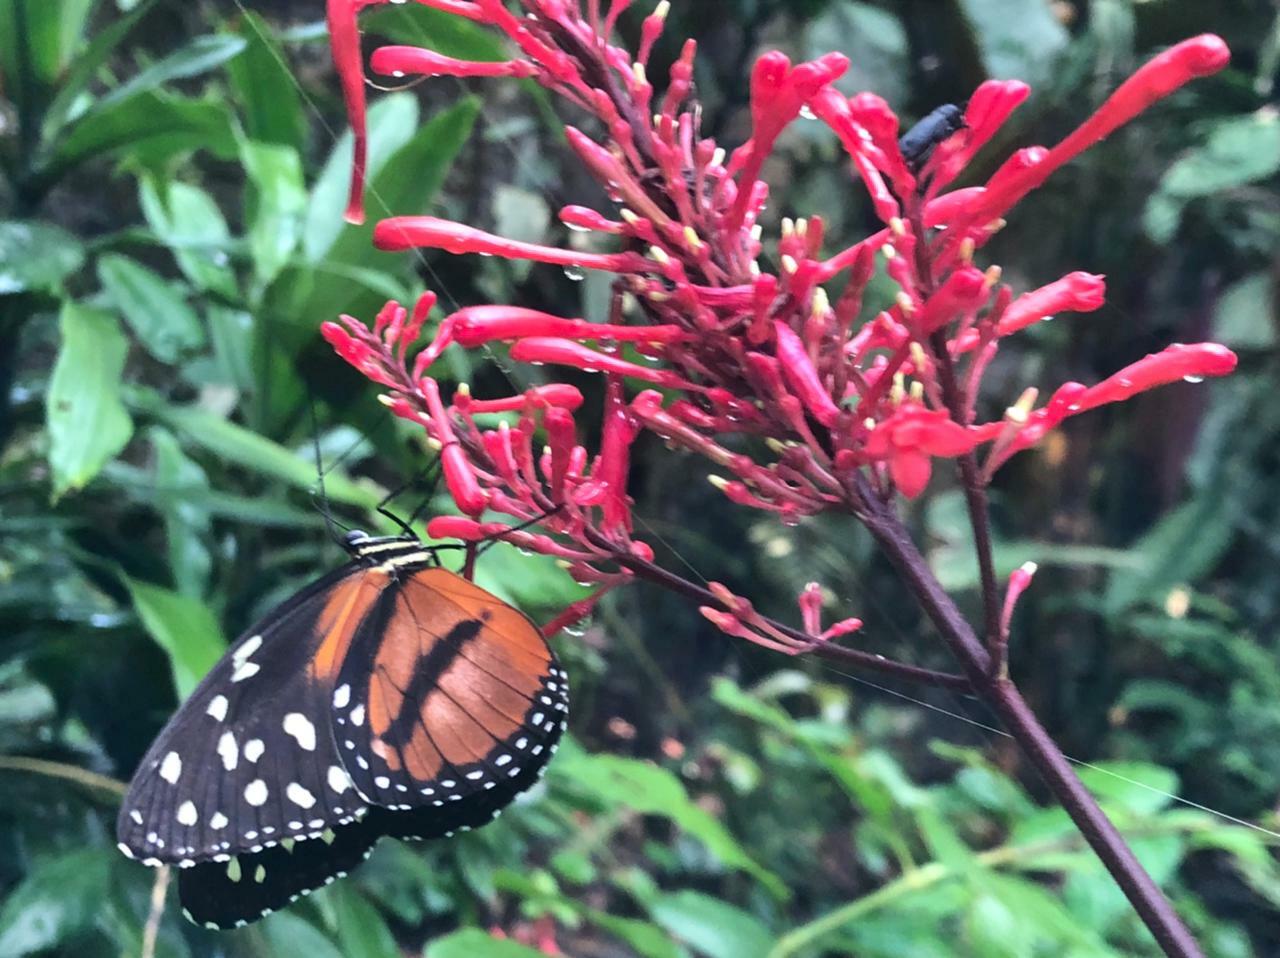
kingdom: Animalia
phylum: Arthropoda
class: Insecta
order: Lepidoptera
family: Nymphalidae
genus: Tithorea
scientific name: Tithorea tarricina
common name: Cream-spotted tigerwing
